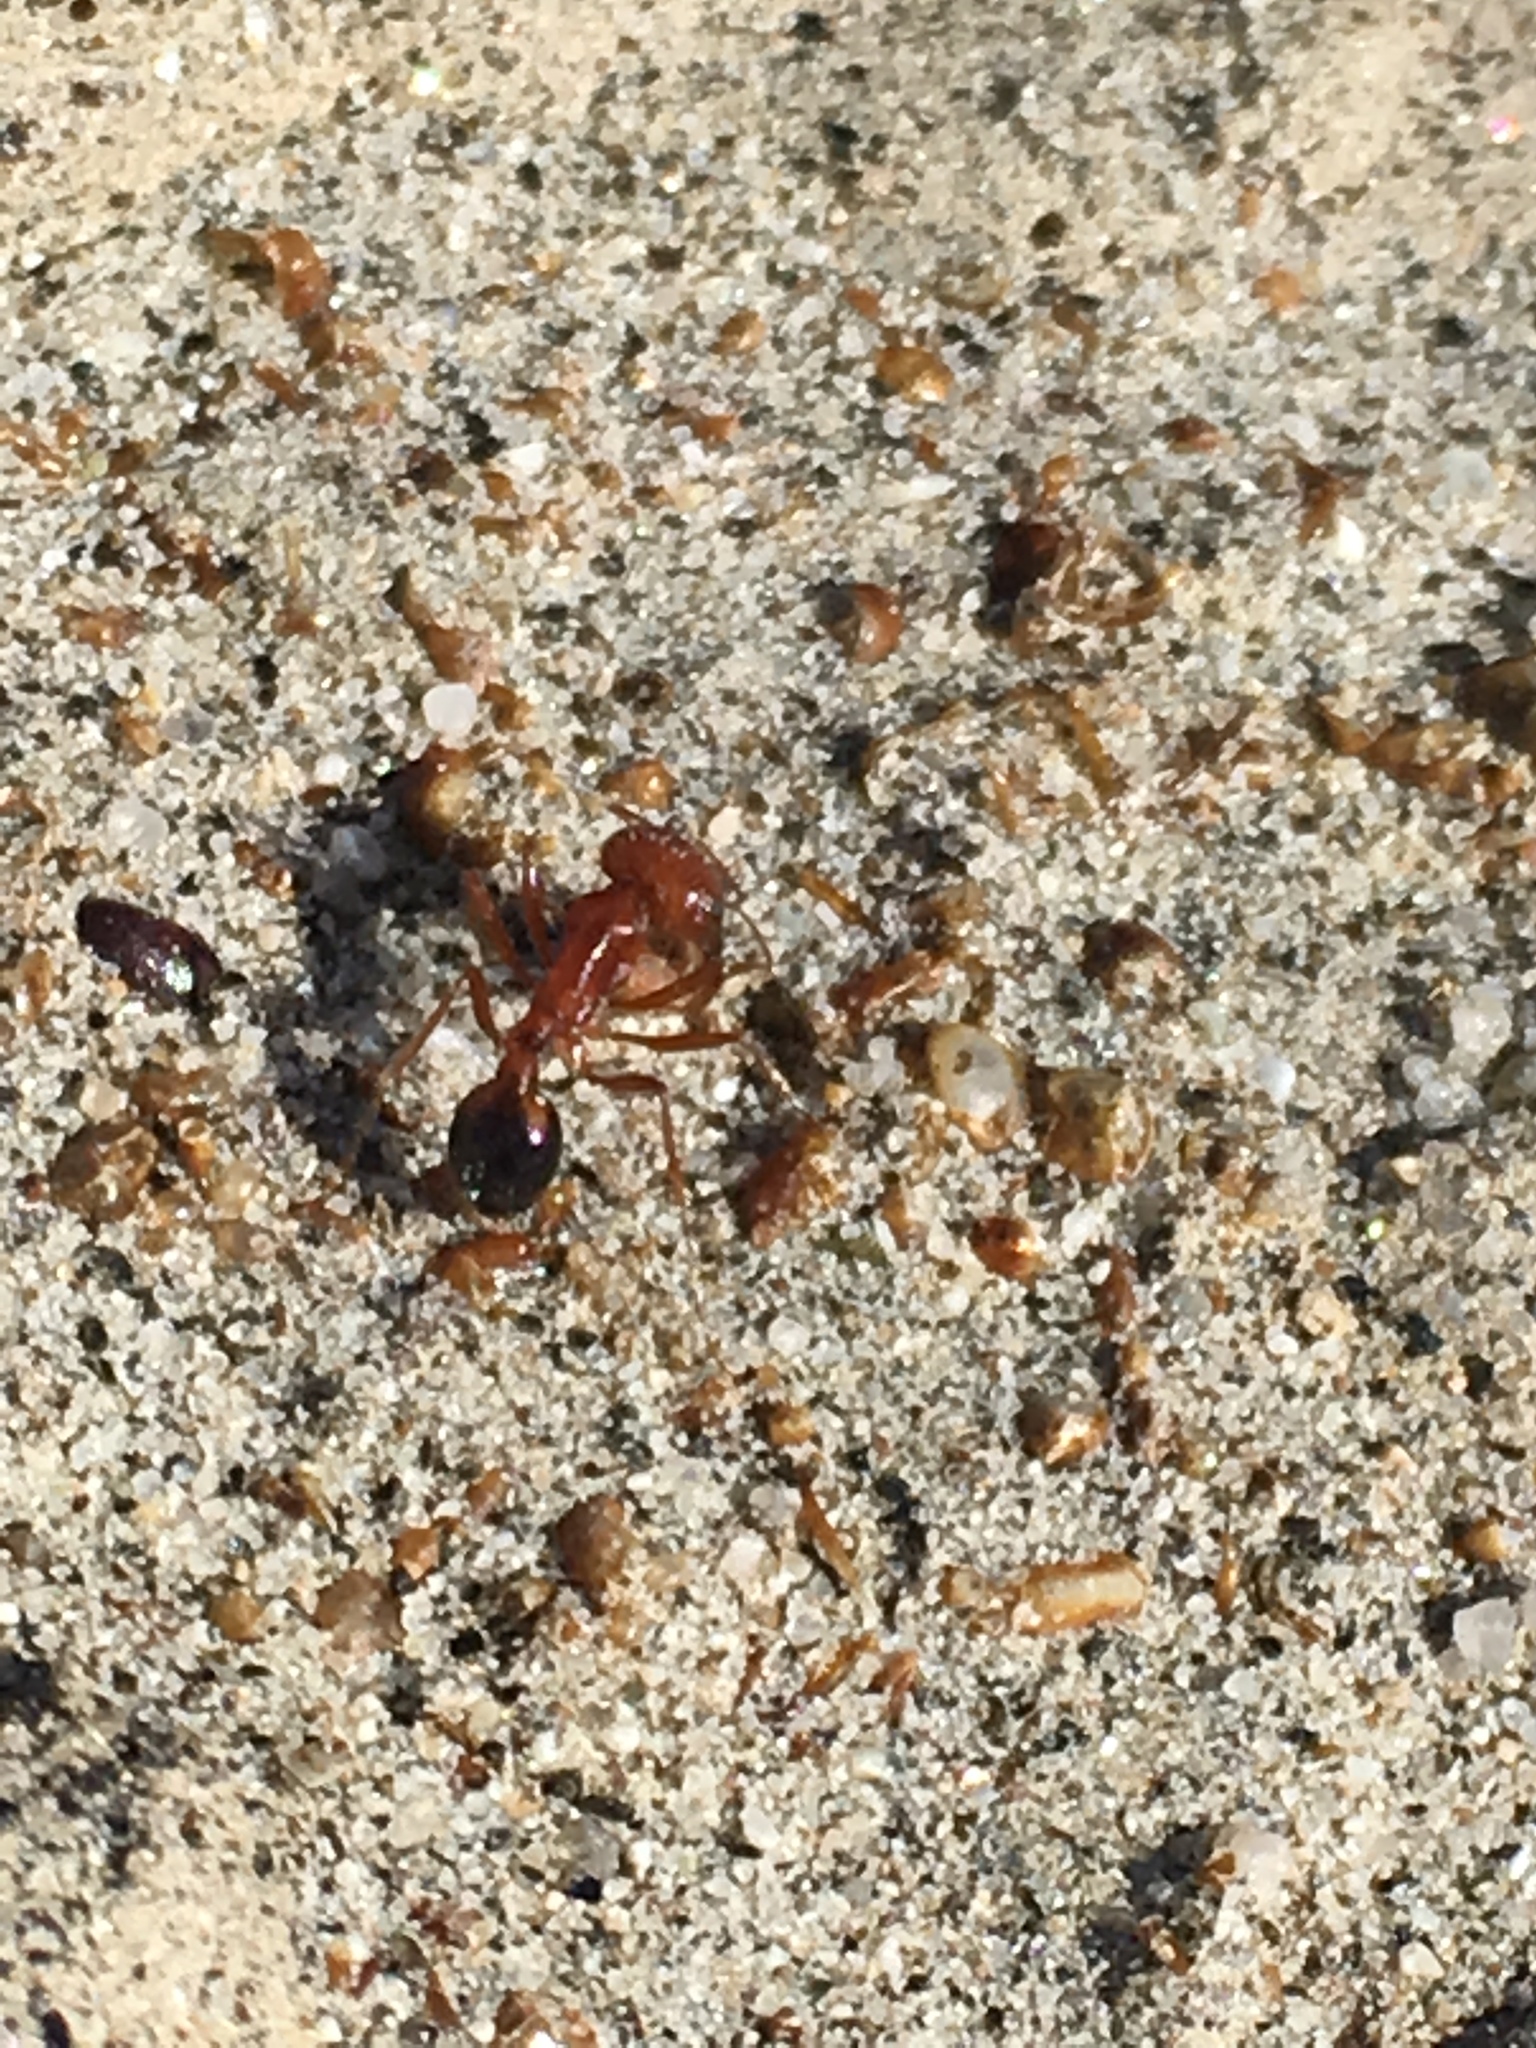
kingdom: Animalia
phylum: Arthropoda
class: Insecta
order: Hymenoptera
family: Formicidae
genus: Pogonomyrmex
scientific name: Pogonomyrmex californicus
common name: California harvester ant
